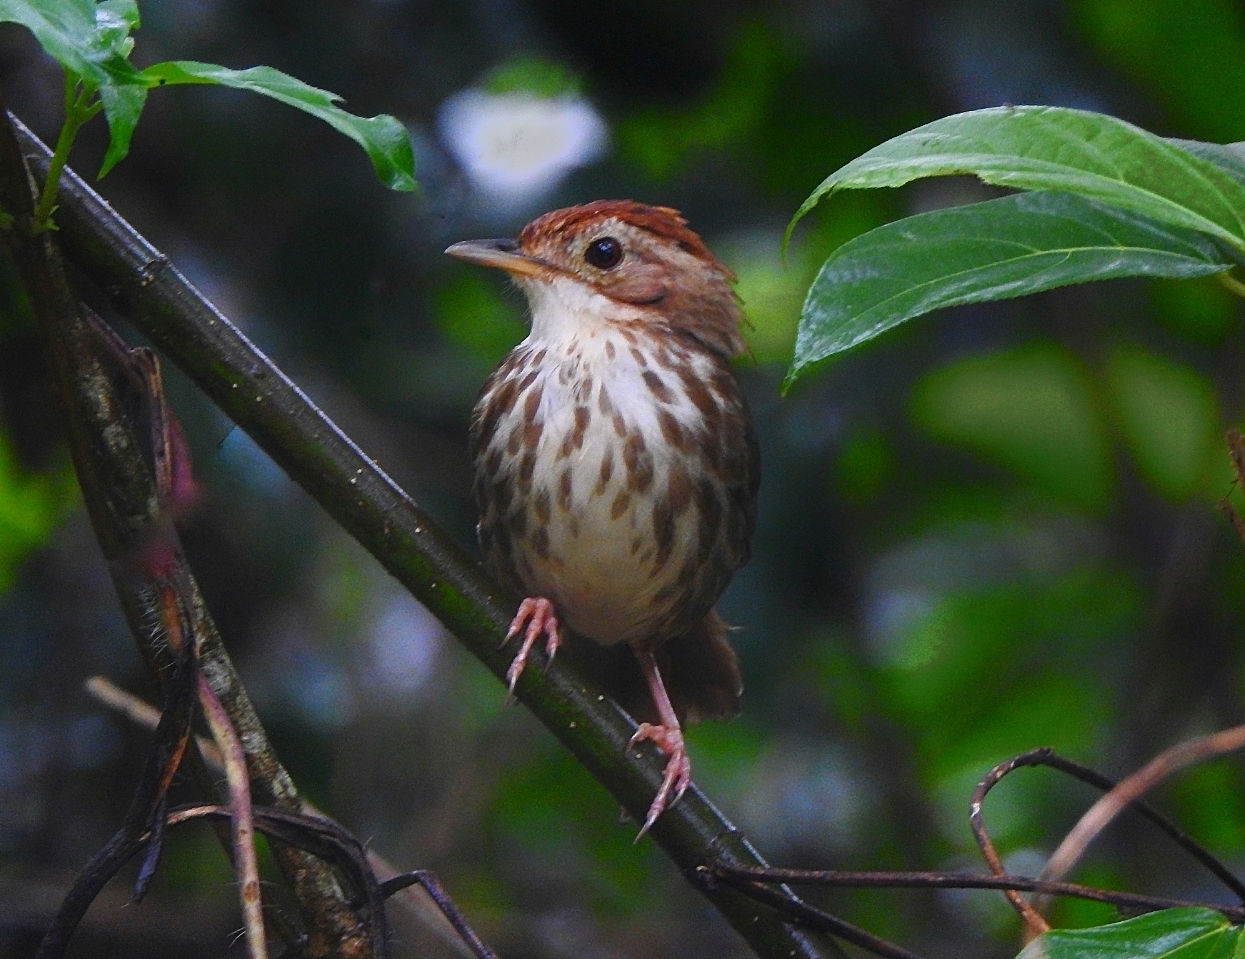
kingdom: Animalia
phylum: Chordata
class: Aves
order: Passeriformes
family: Pellorneidae
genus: Pellorneum
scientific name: Pellorneum ruficeps
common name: Puff-throated babbler
